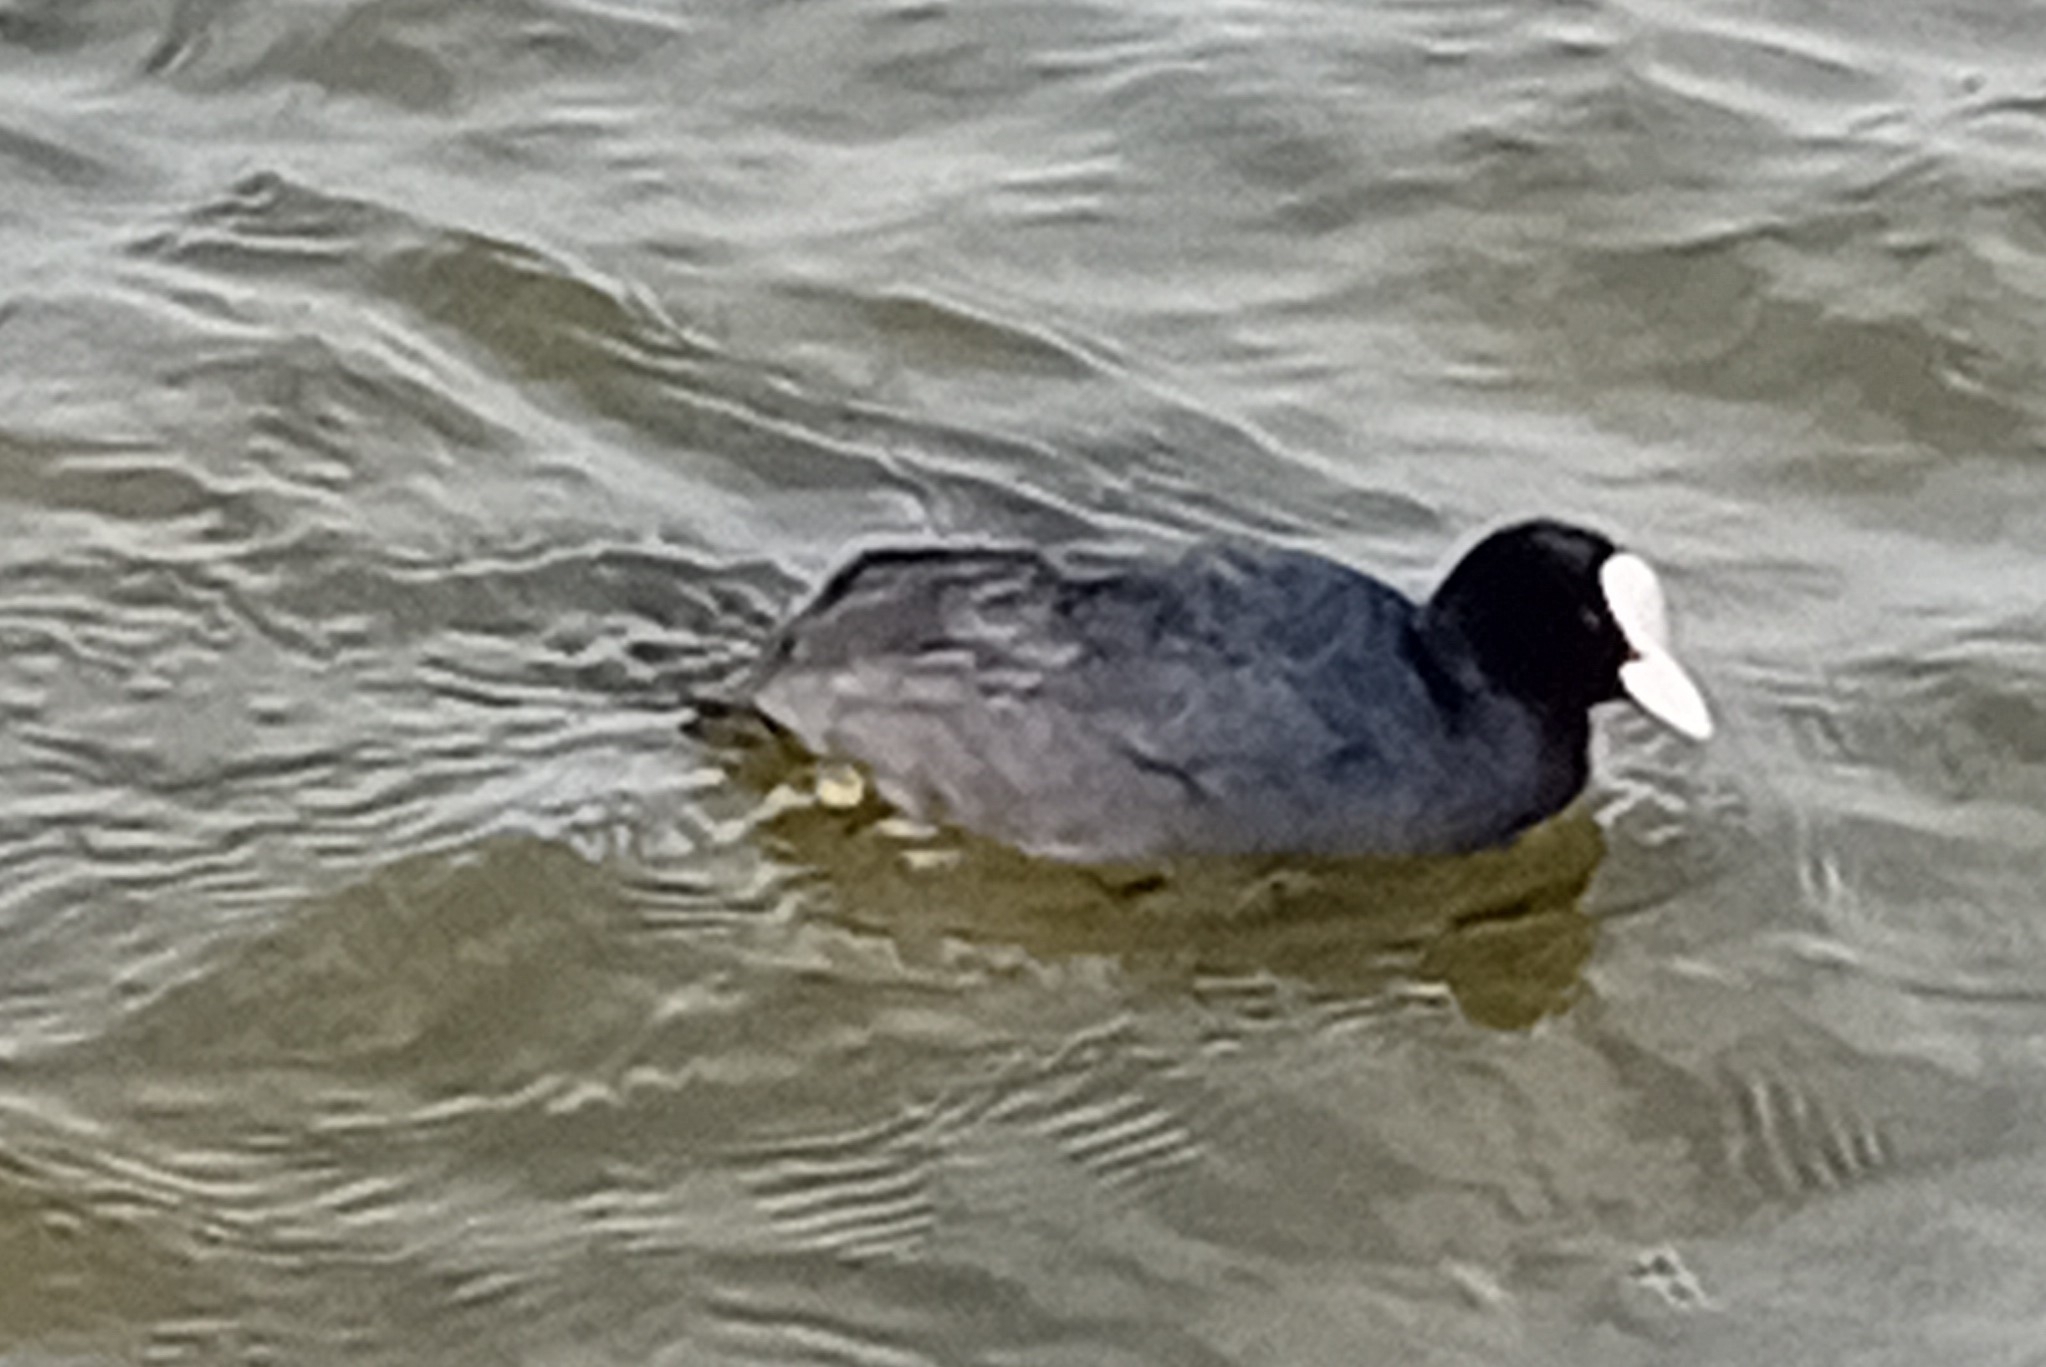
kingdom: Animalia
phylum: Chordata
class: Aves
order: Gruiformes
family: Rallidae
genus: Fulica
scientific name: Fulica atra
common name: Eurasian coot
